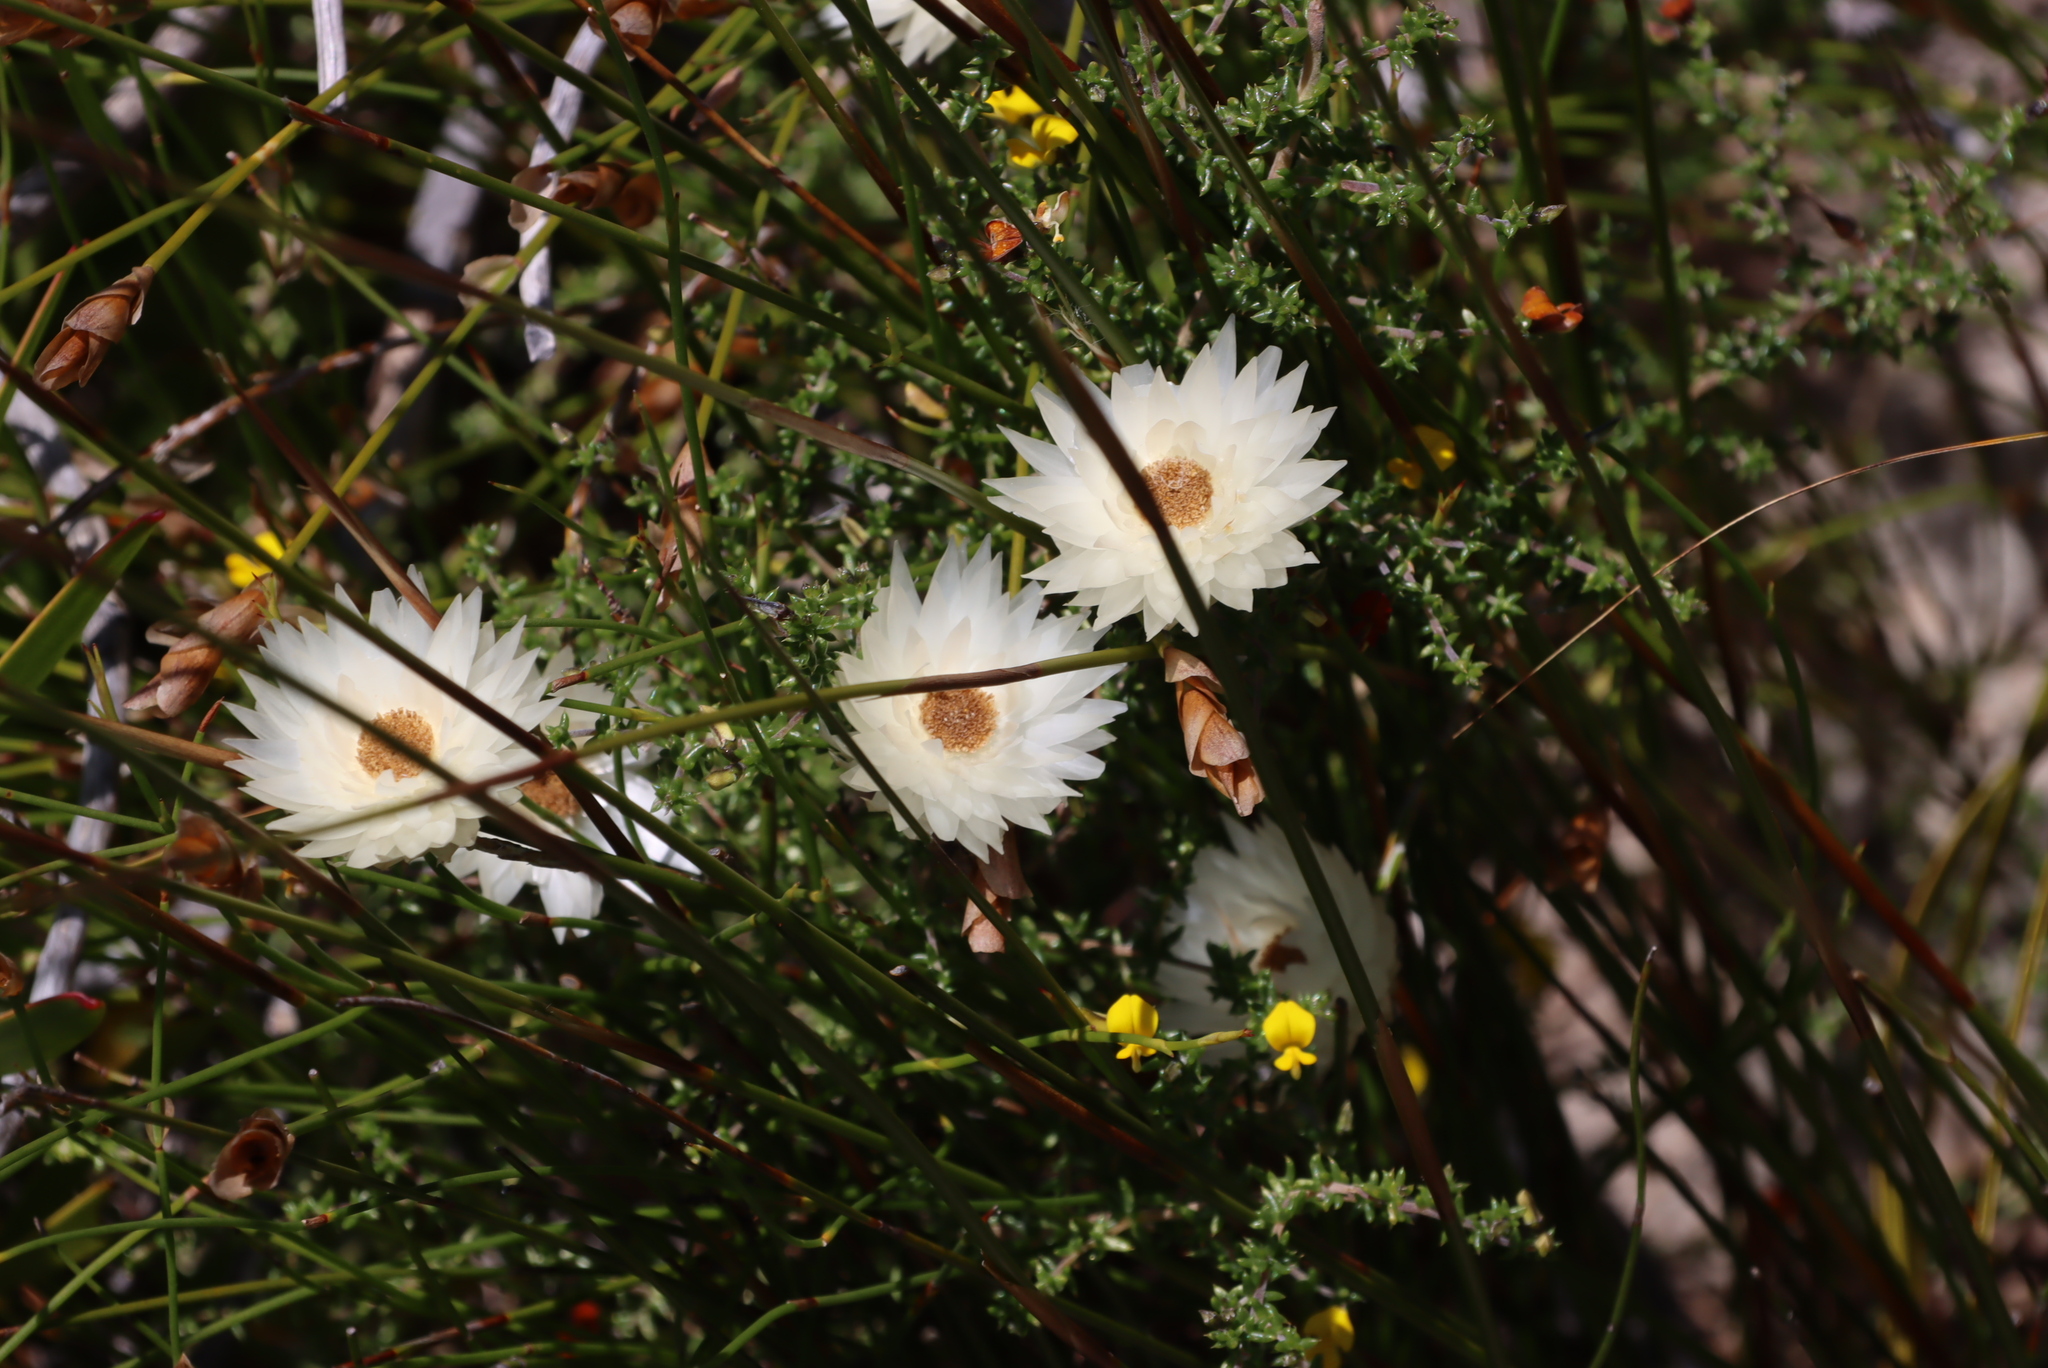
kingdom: Plantae
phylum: Tracheophyta
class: Magnoliopsida
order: Asterales
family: Asteraceae
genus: Edmondia
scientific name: Edmondia sesamoides
